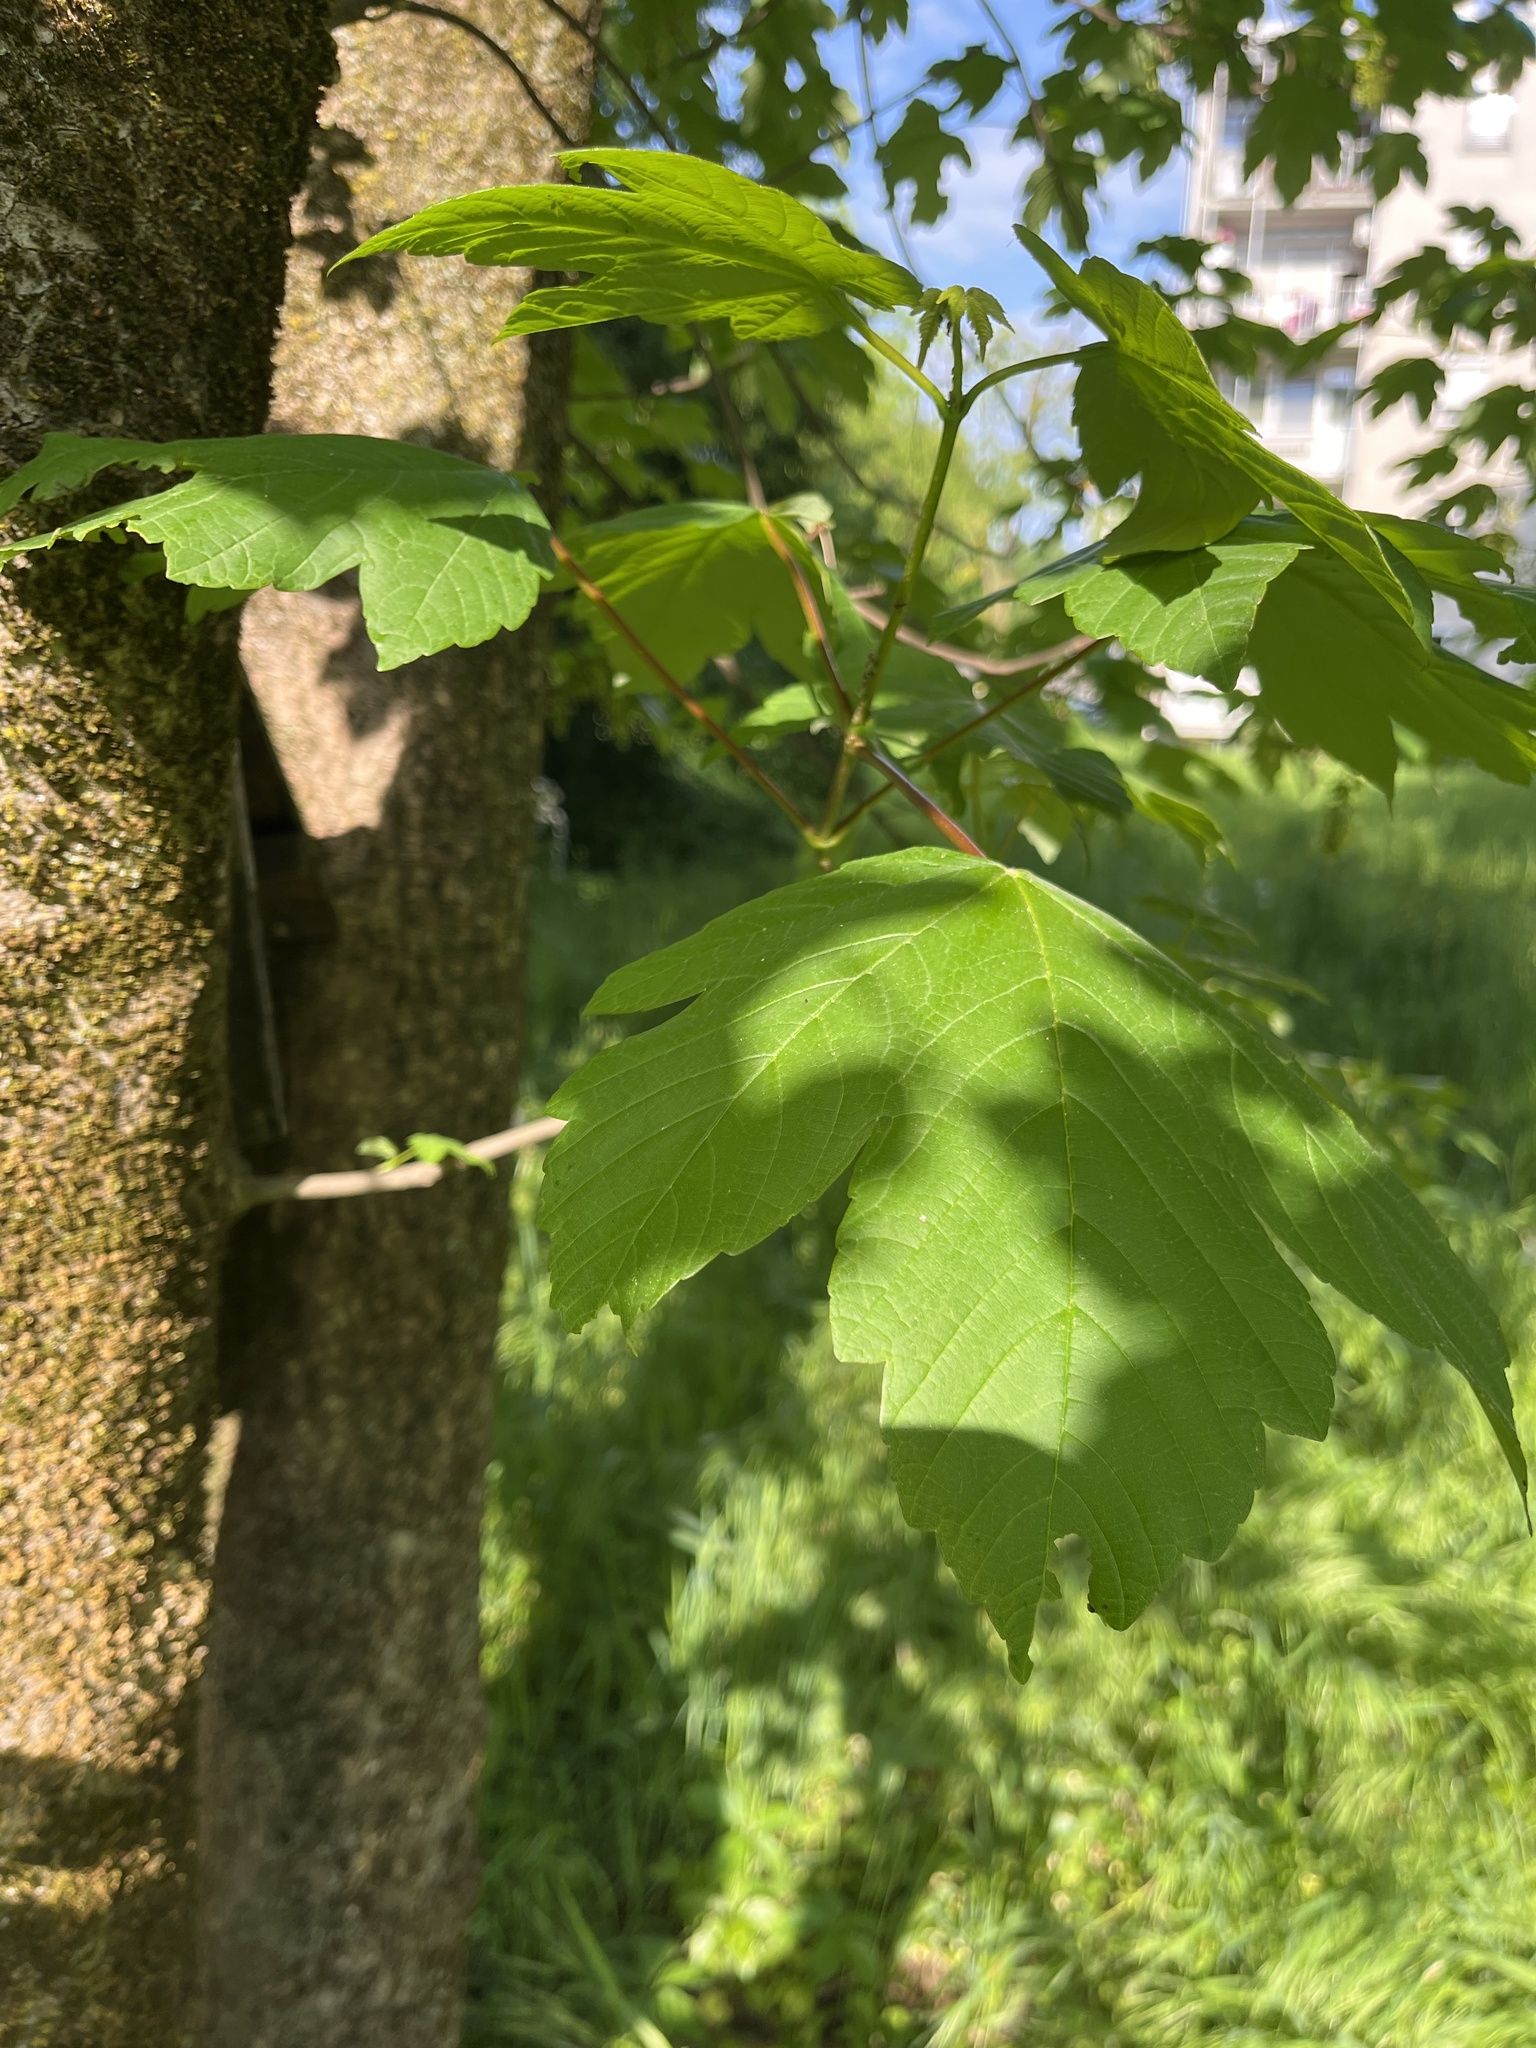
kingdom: Plantae
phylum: Tracheophyta
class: Magnoliopsida
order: Sapindales
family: Sapindaceae
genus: Acer
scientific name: Acer pseudoplatanus
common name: Sycamore
